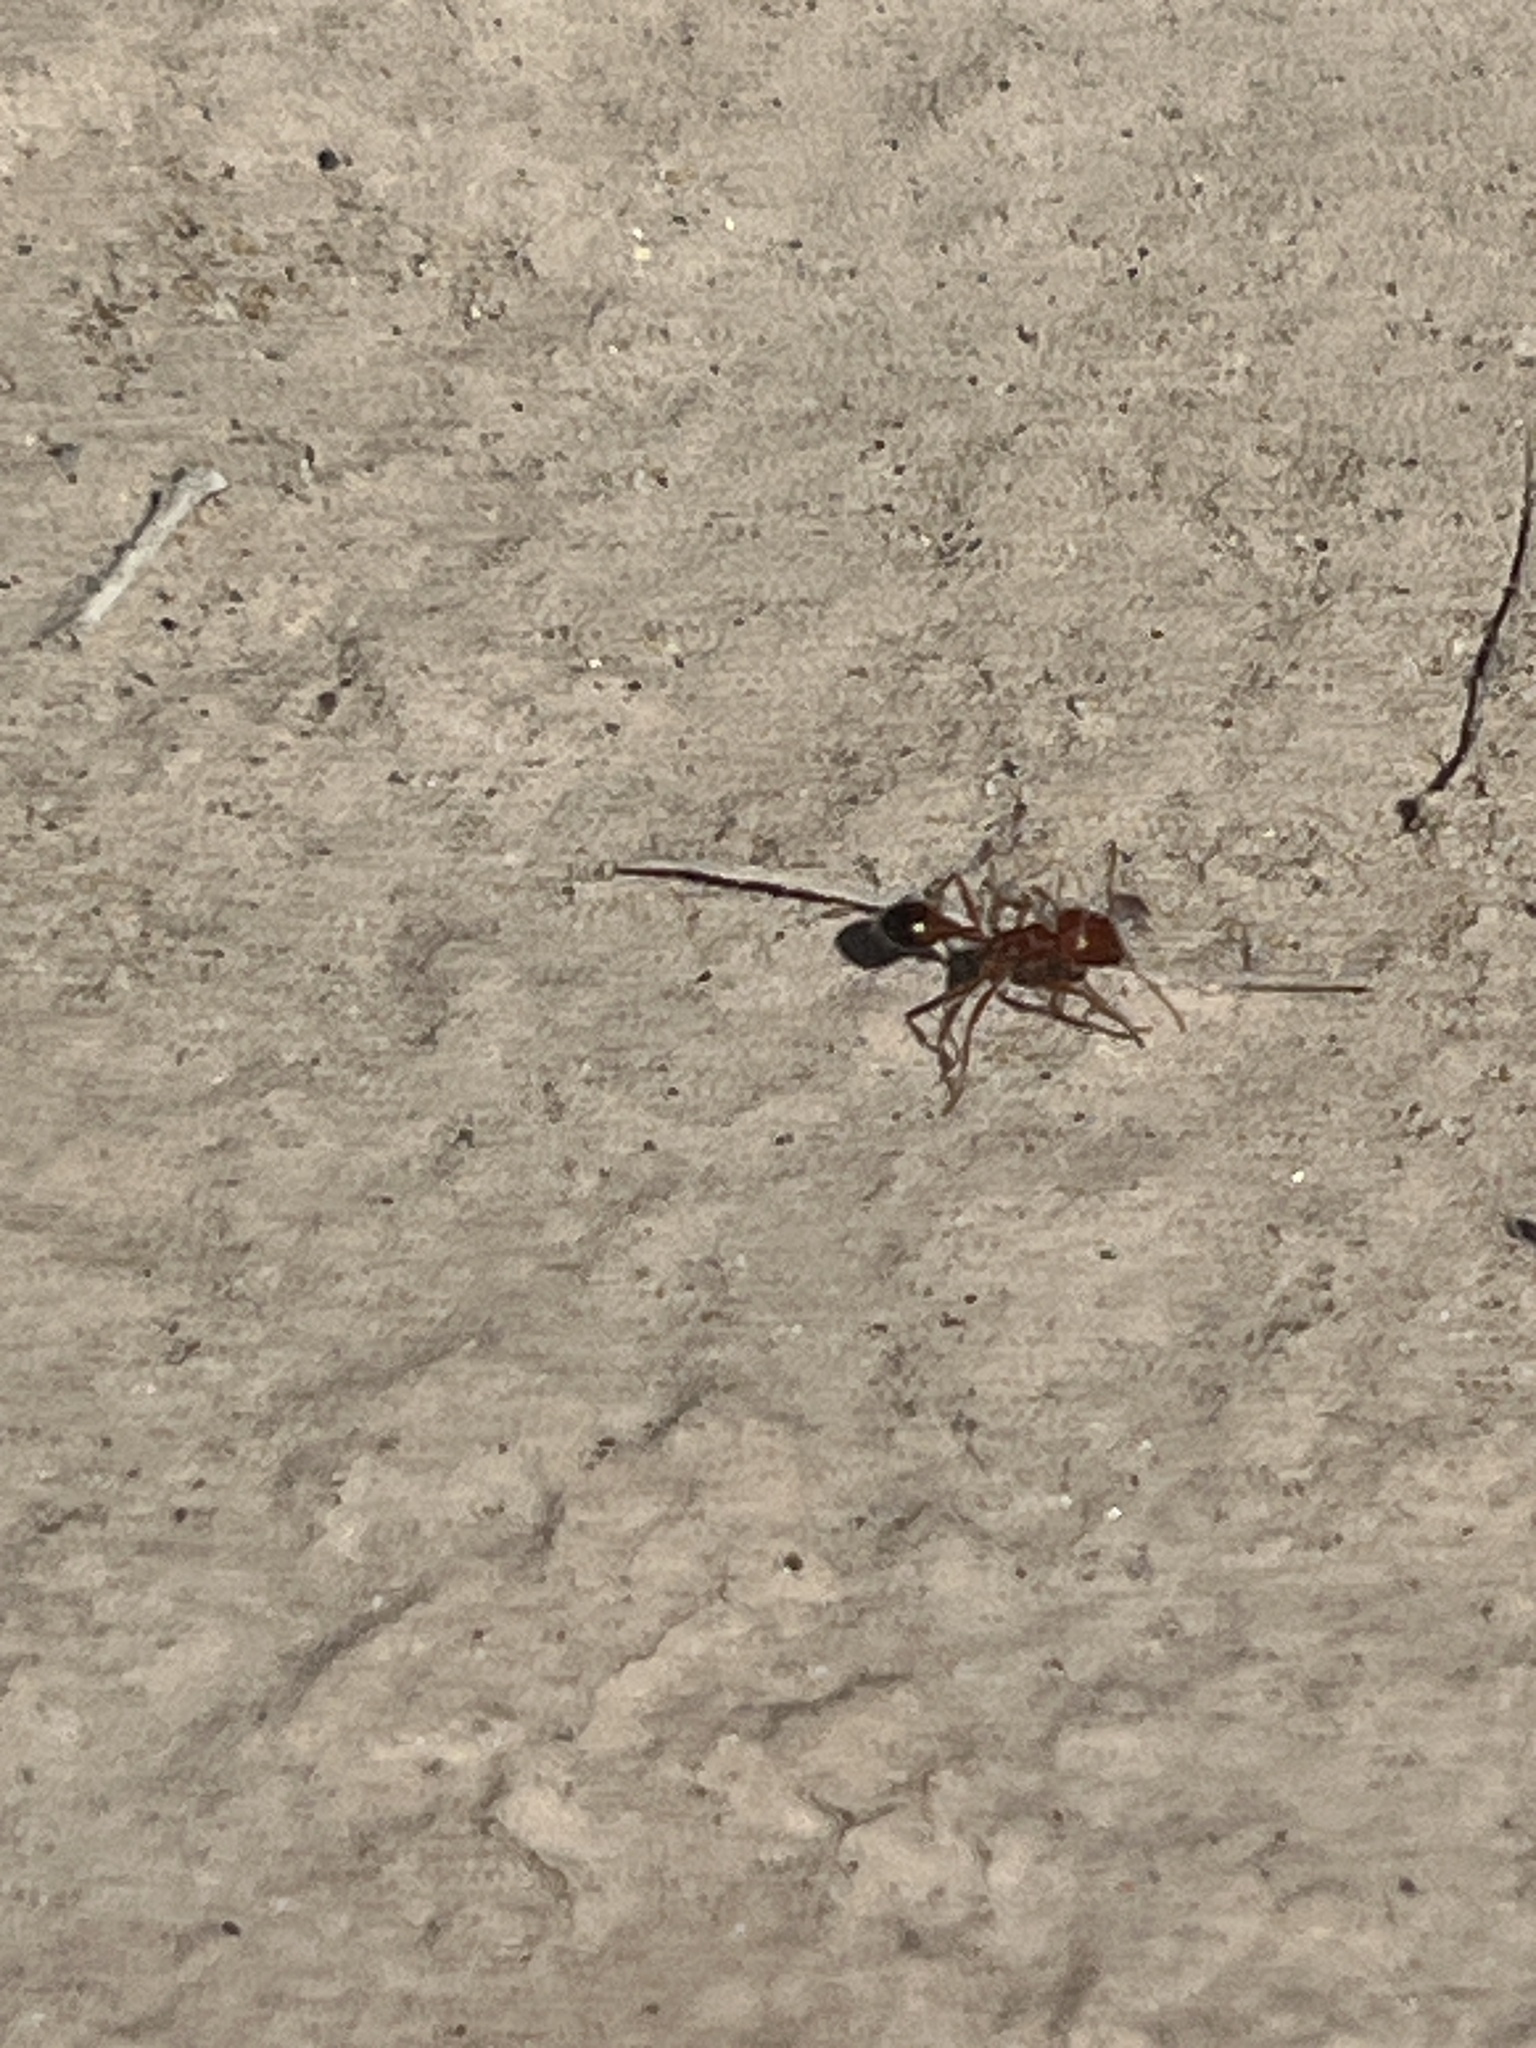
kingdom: Animalia
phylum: Arthropoda
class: Insecta
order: Hymenoptera
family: Formicidae
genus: Pogonomyrmex
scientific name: Pogonomyrmex californicus
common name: California harvester ant
